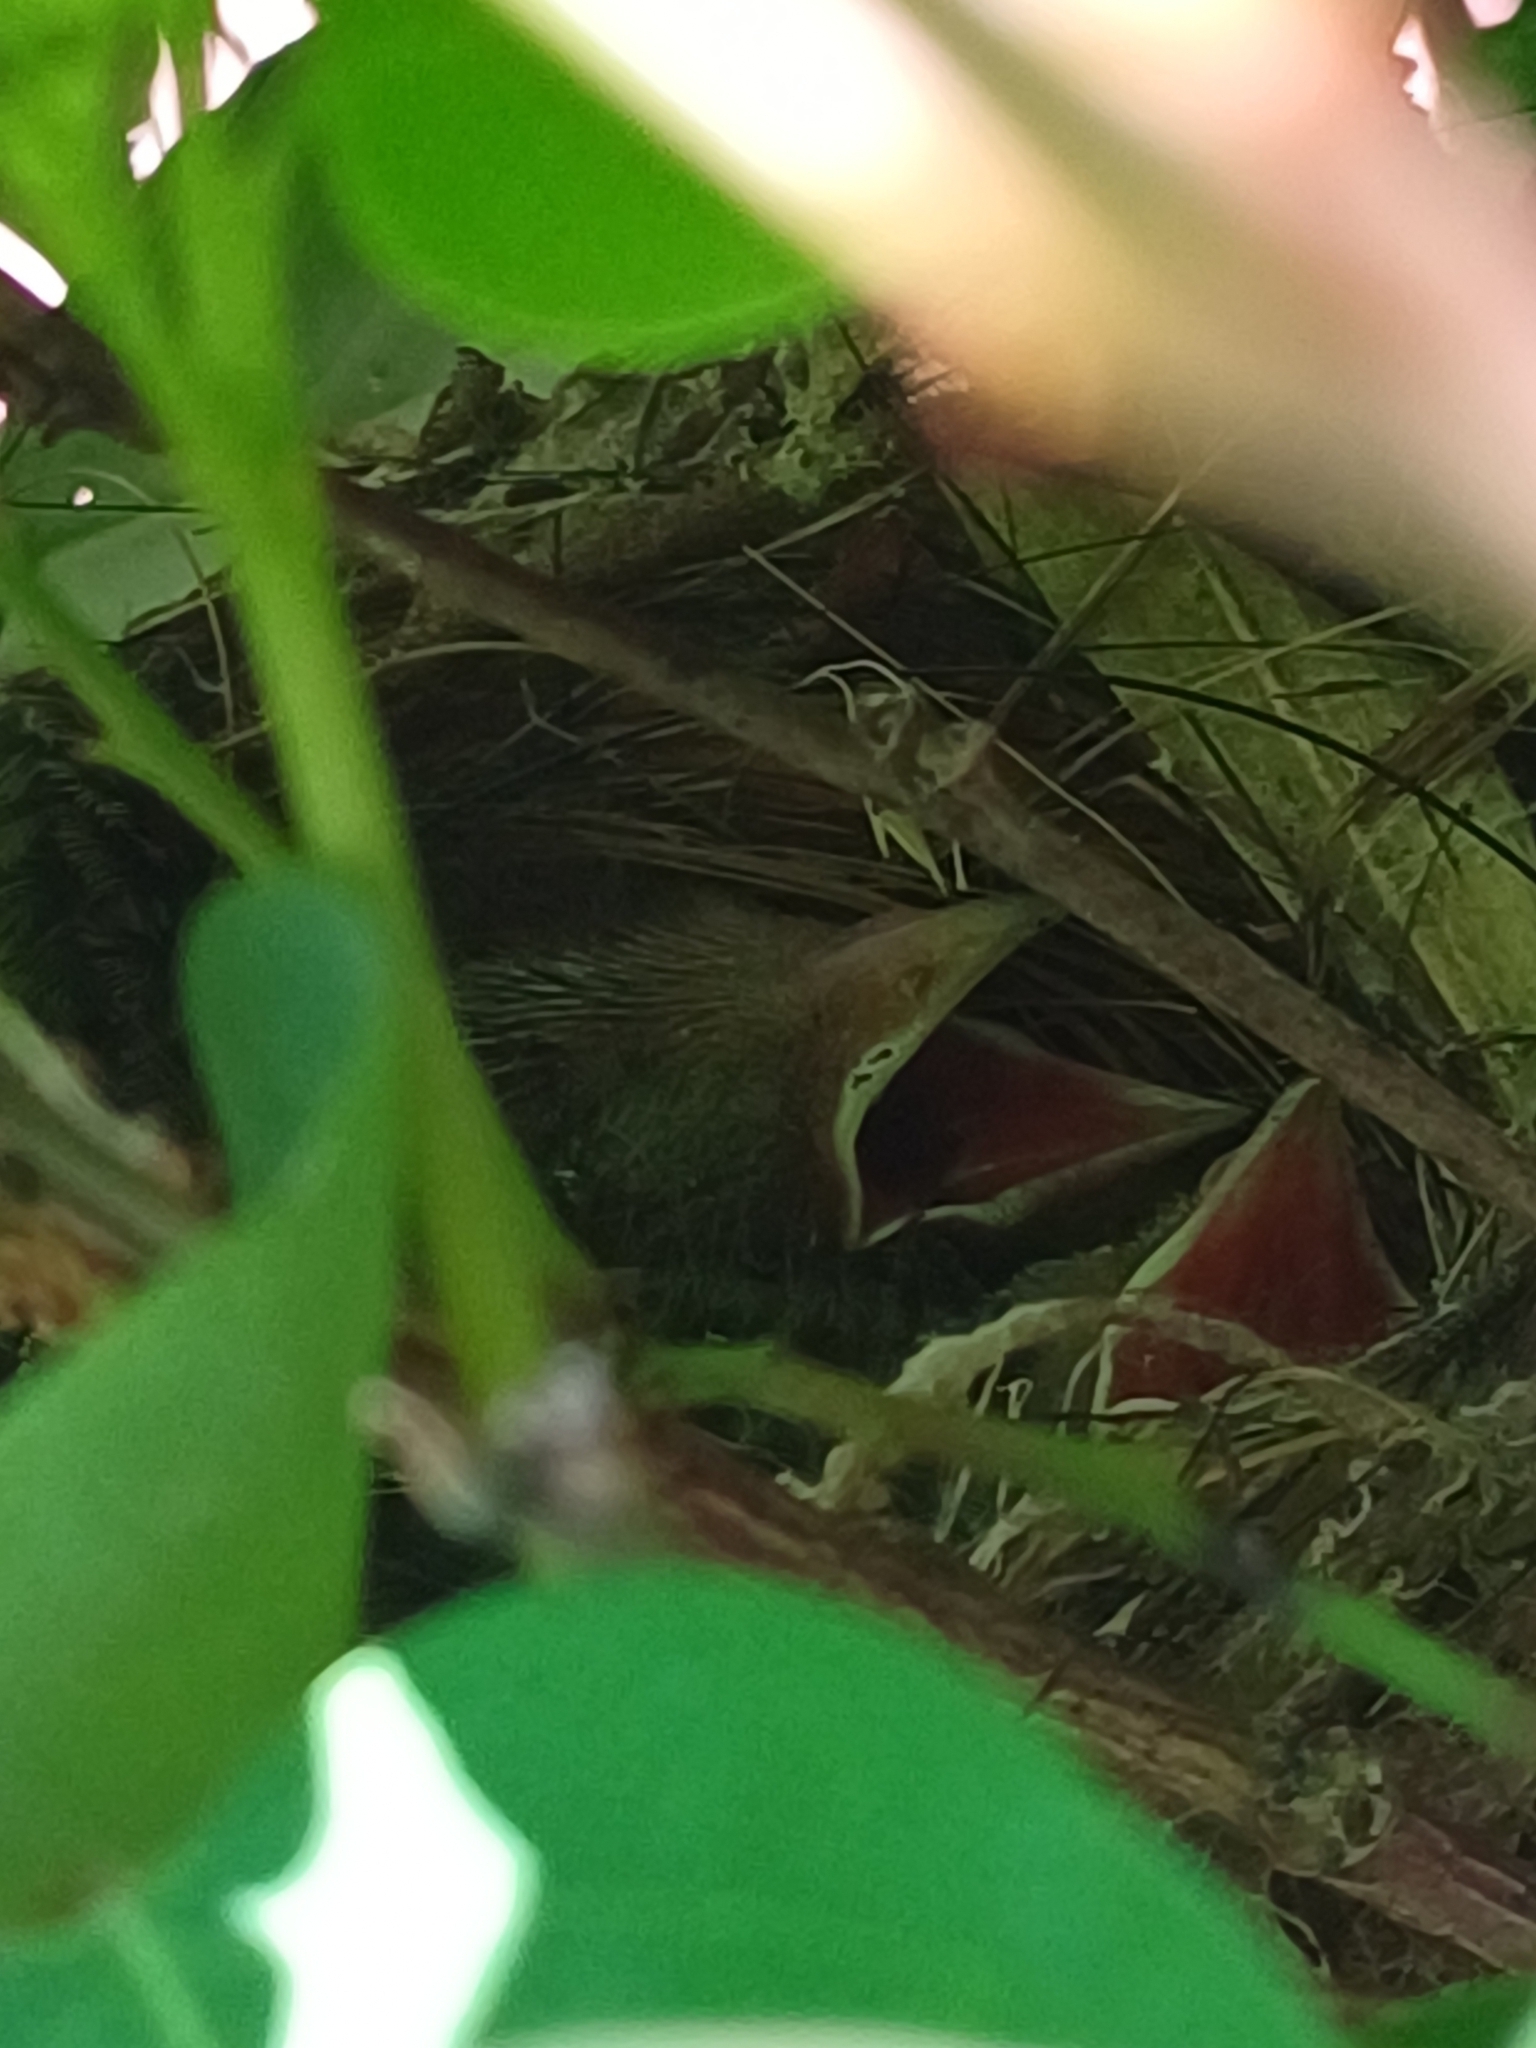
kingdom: Animalia
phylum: Chordata
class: Aves
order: Passeriformes
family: Thraupidae
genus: Stilpnia
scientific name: Stilpnia cayana
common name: Burnished-buff tanager
